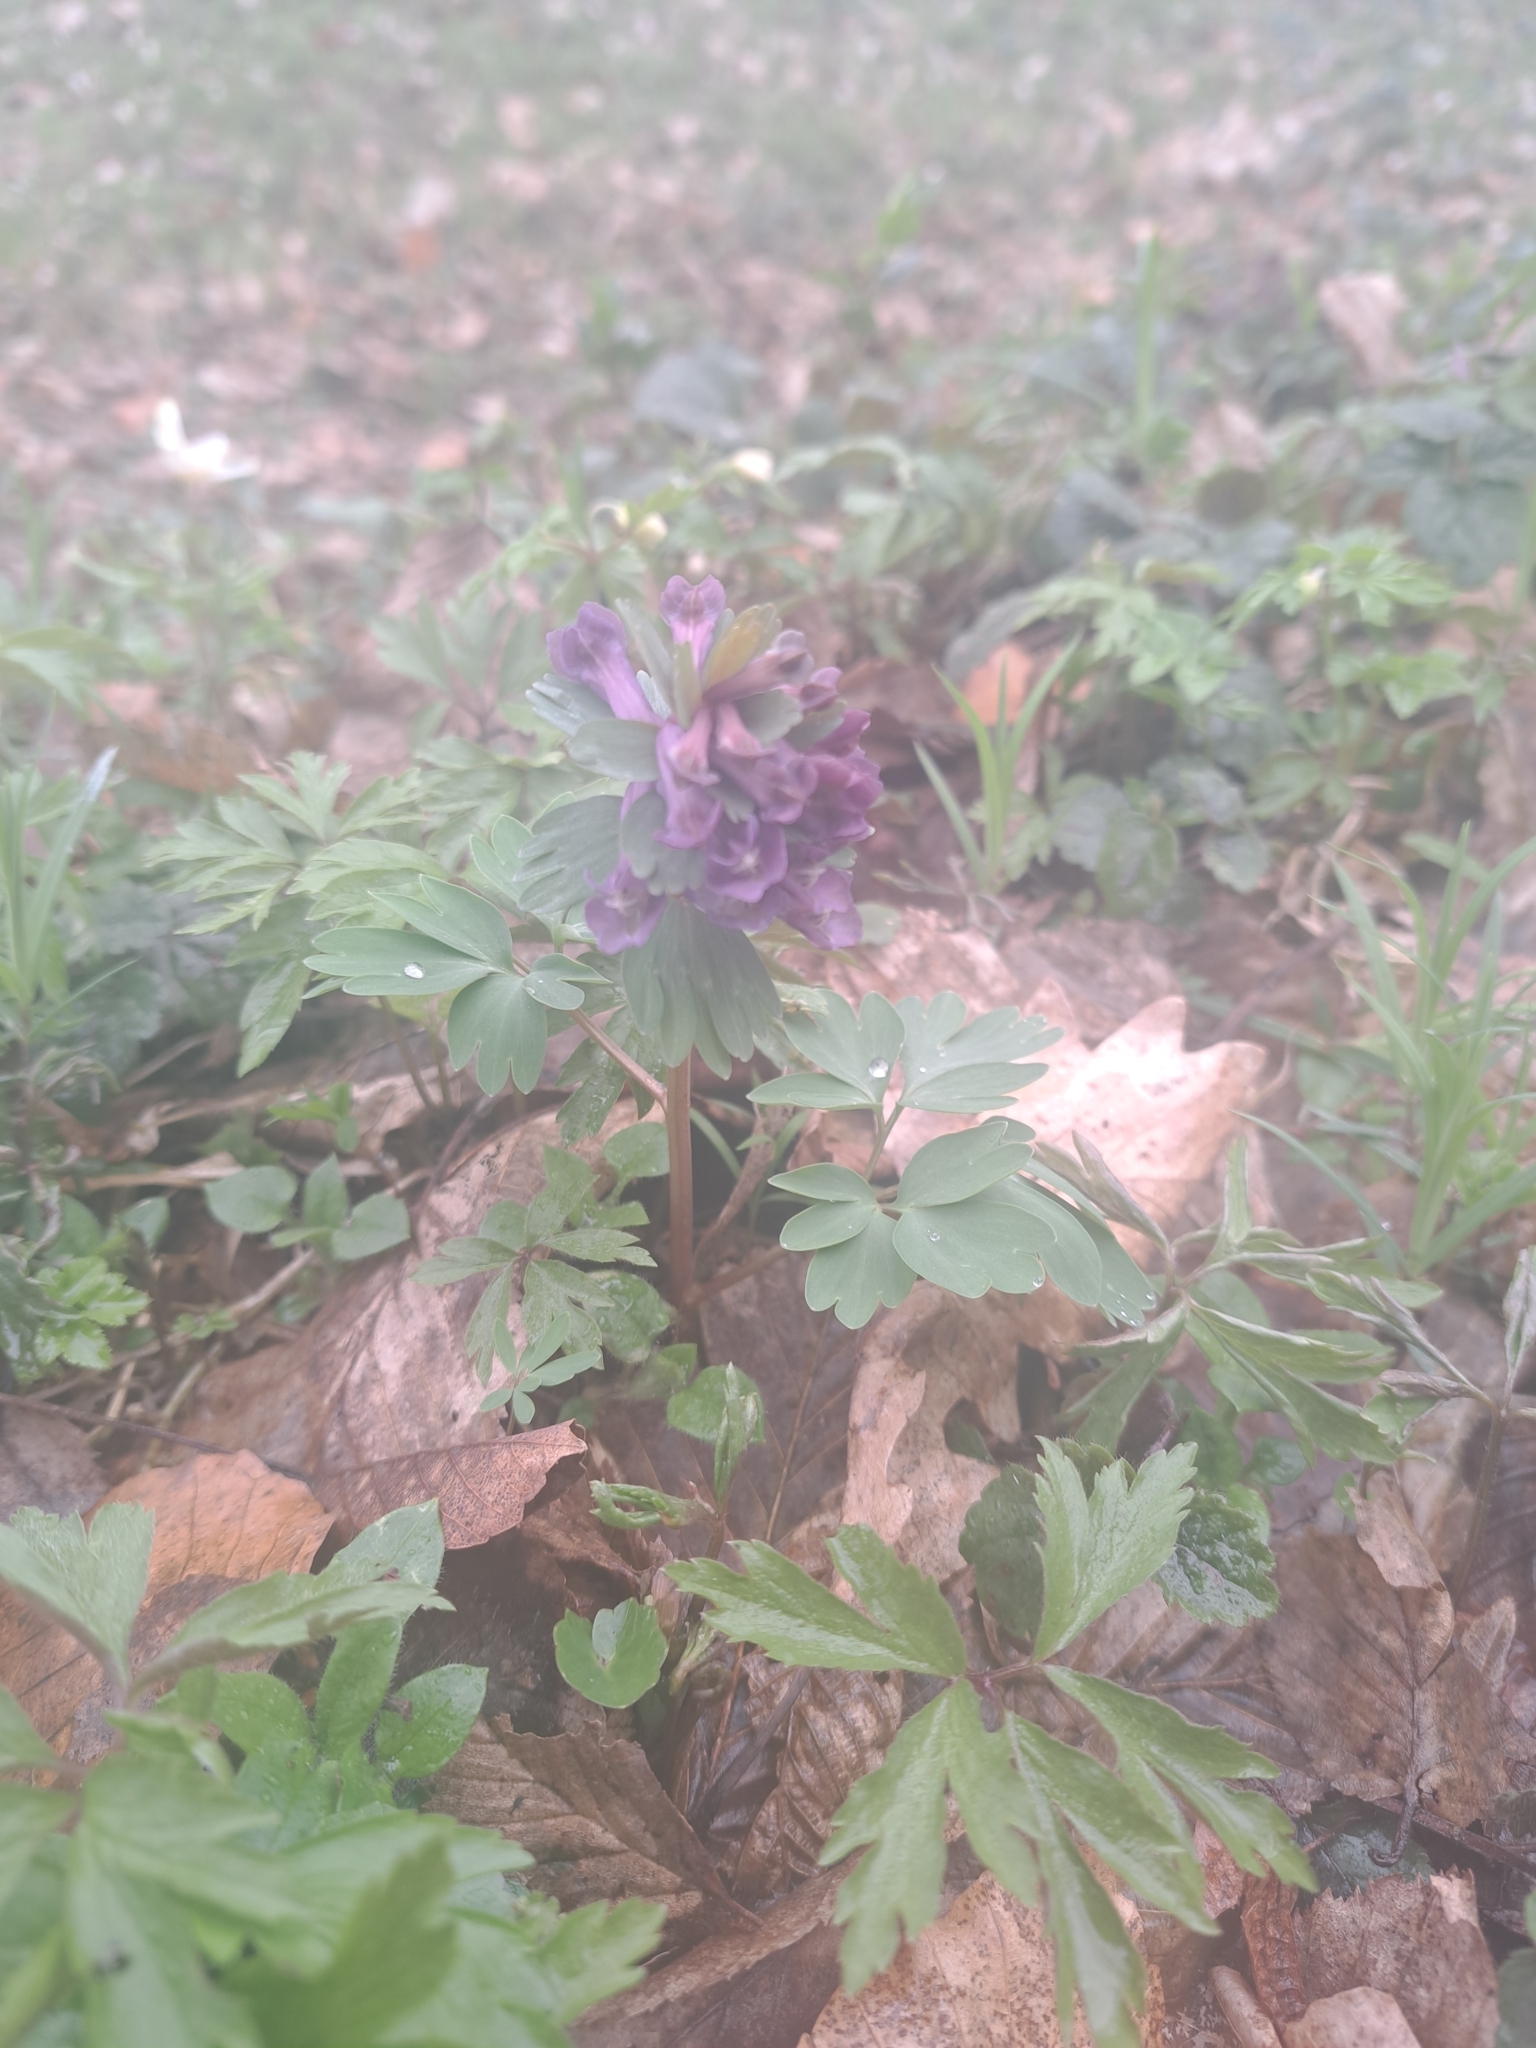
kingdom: Plantae
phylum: Tracheophyta
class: Magnoliopsida
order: Ranunculales
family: Papaveraceae
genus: Corydalis
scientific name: Corydalis solida
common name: Bird-in-a-bush
